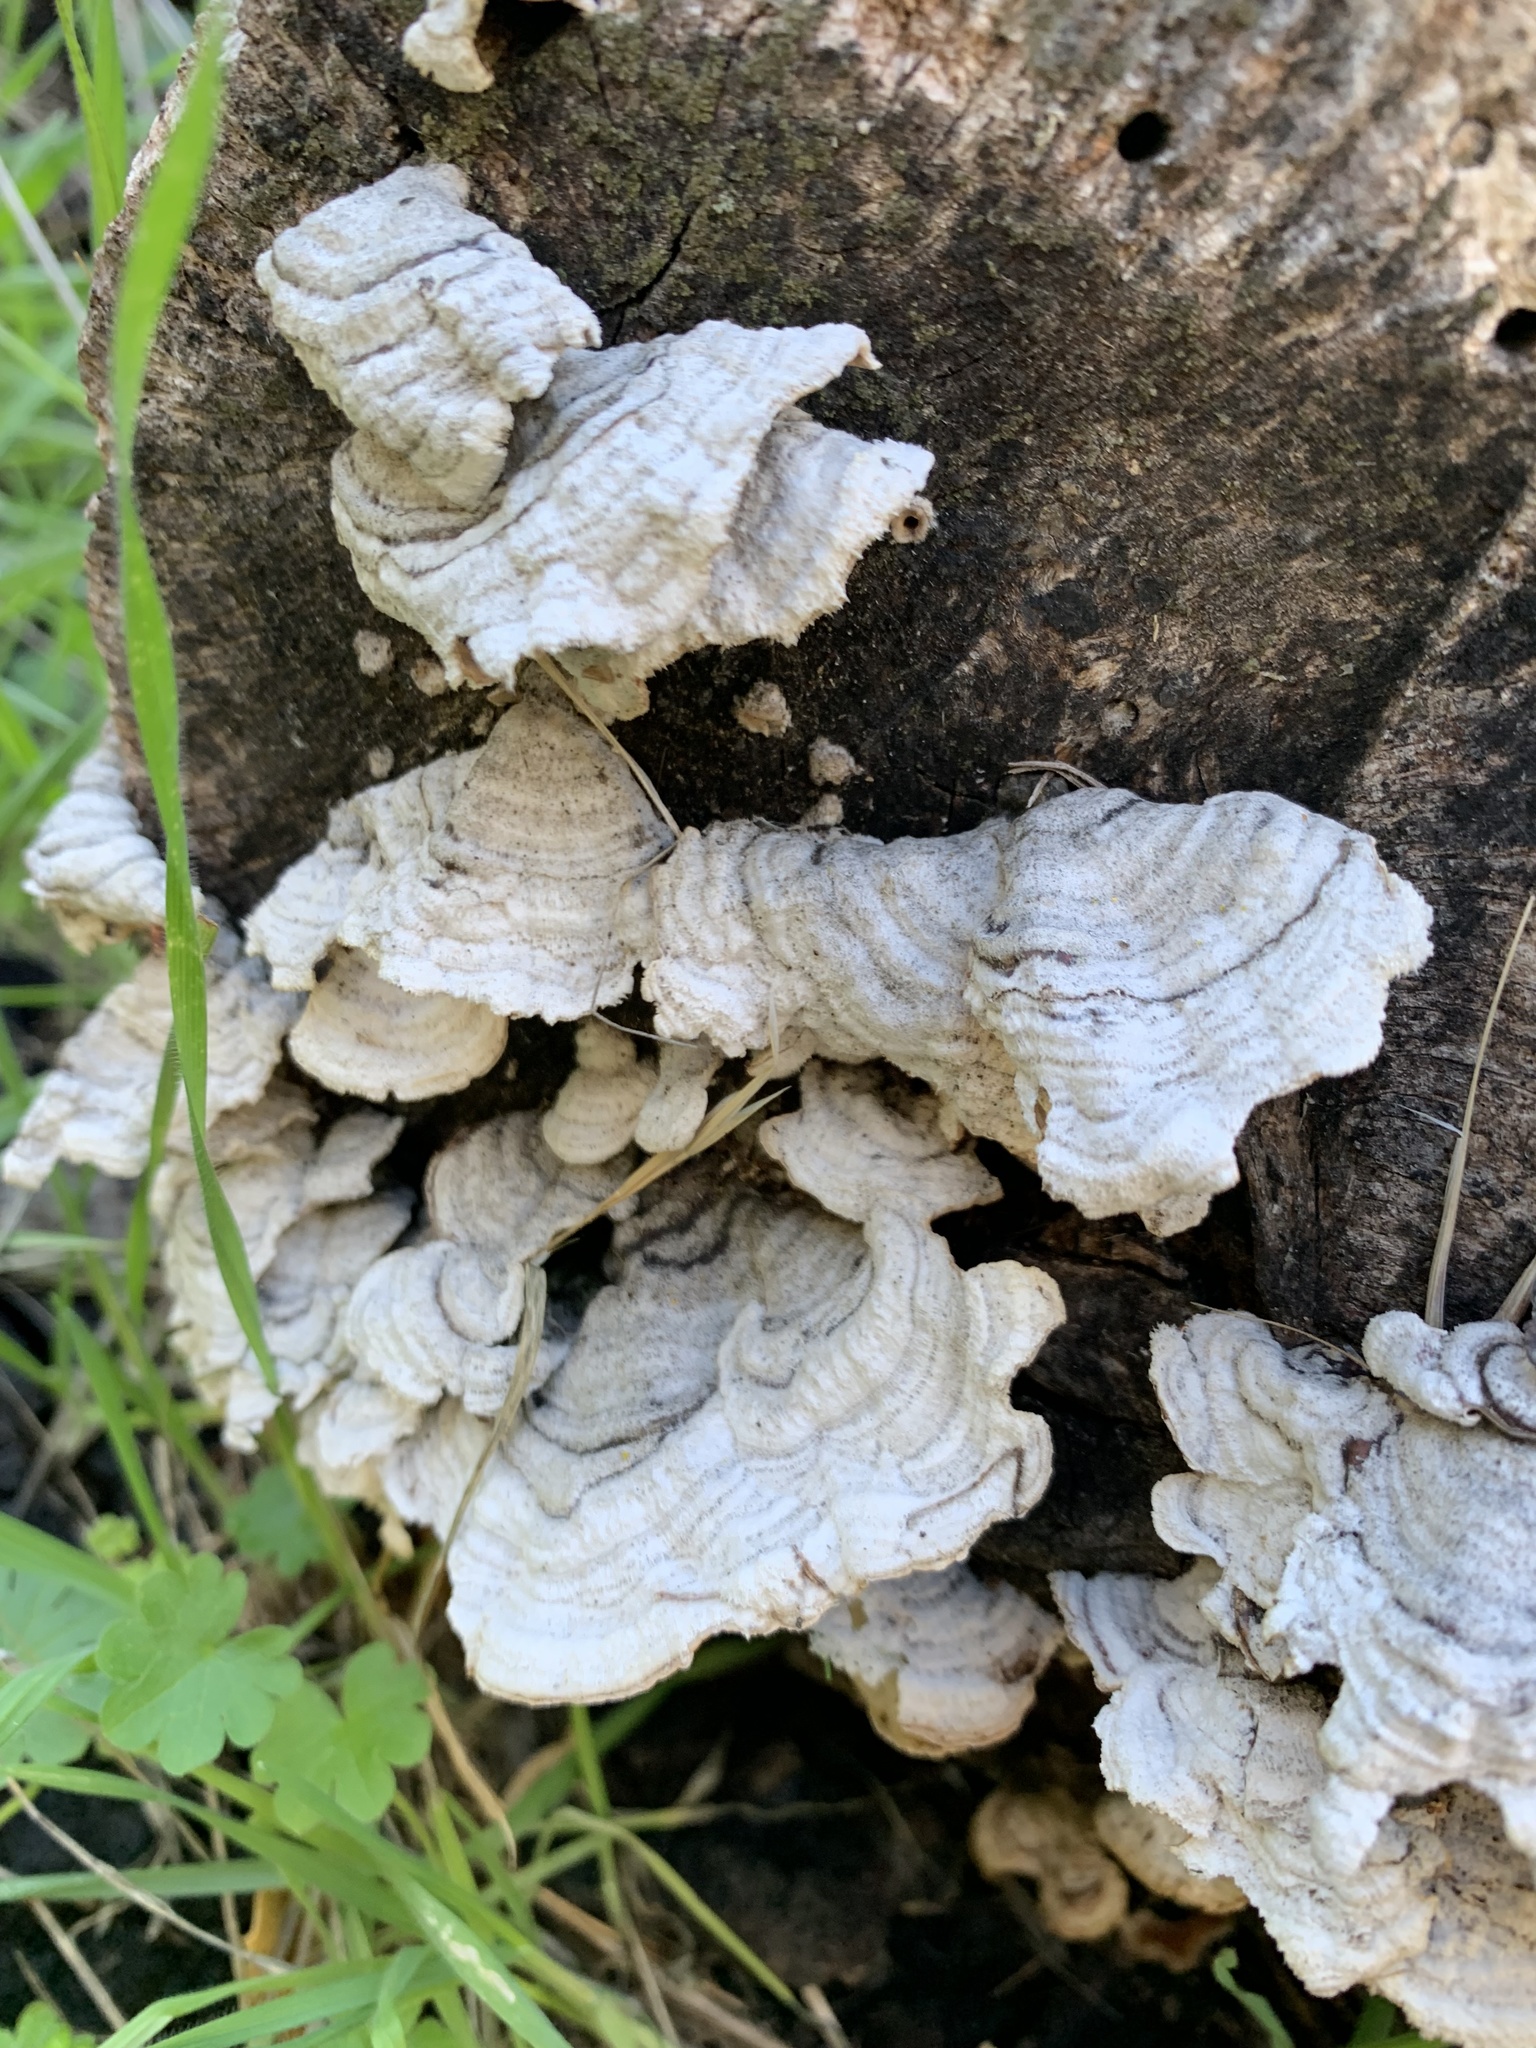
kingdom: Fungi
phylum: Basidiomycota
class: Agaricomycetes
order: Russulales
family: Stereaceae
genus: Stereum
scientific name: Stereum hirsutum
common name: Hairy curtain crust
